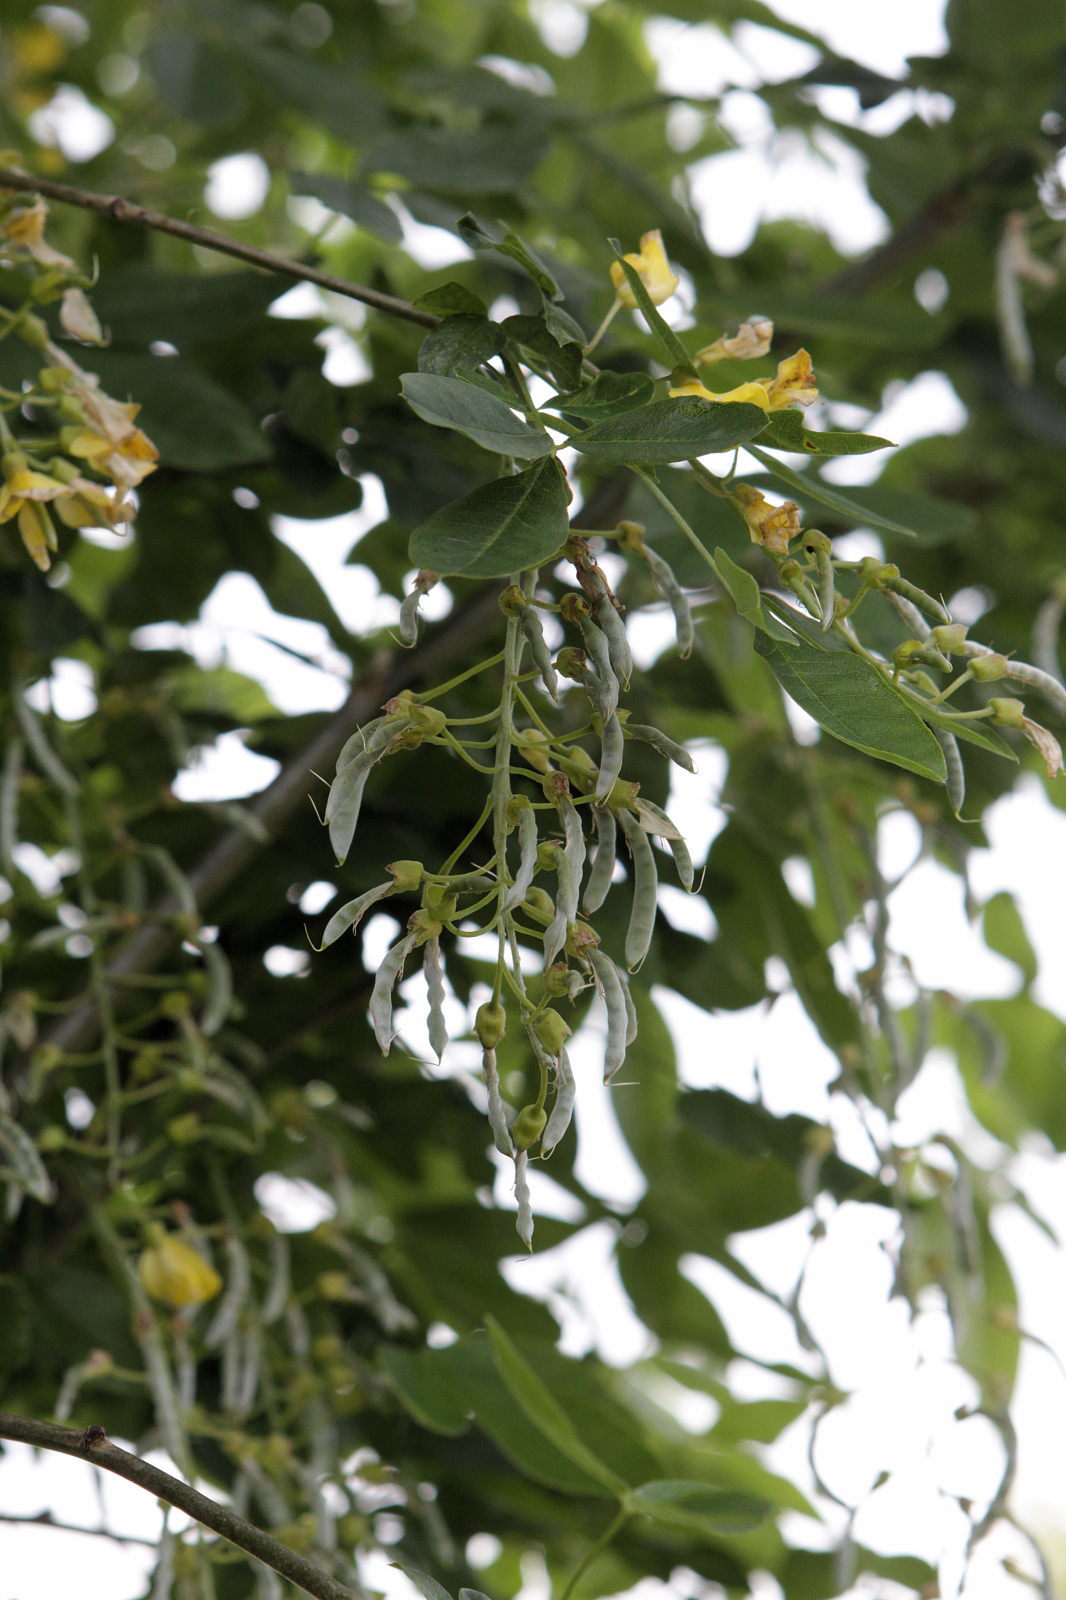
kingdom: Plantae
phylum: Tracheophyta
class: Magnoliopsida
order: Fabales
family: Fabaceae
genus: Laburnum
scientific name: Laburnum anagyroides
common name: Laburnum
